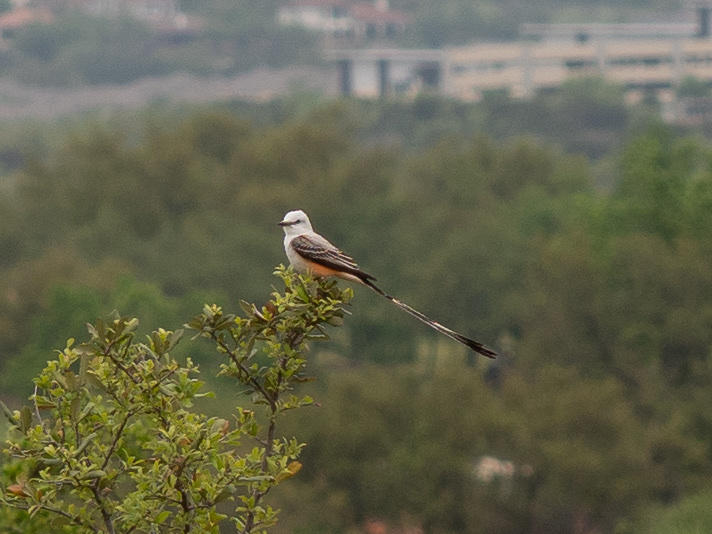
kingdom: Animalia
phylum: Chordata
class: Aves
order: Passeriformes
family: Tyrannidae
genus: Tyrannus
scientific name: Tyrannus forficatus
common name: Scissor-tailed flycatcher
